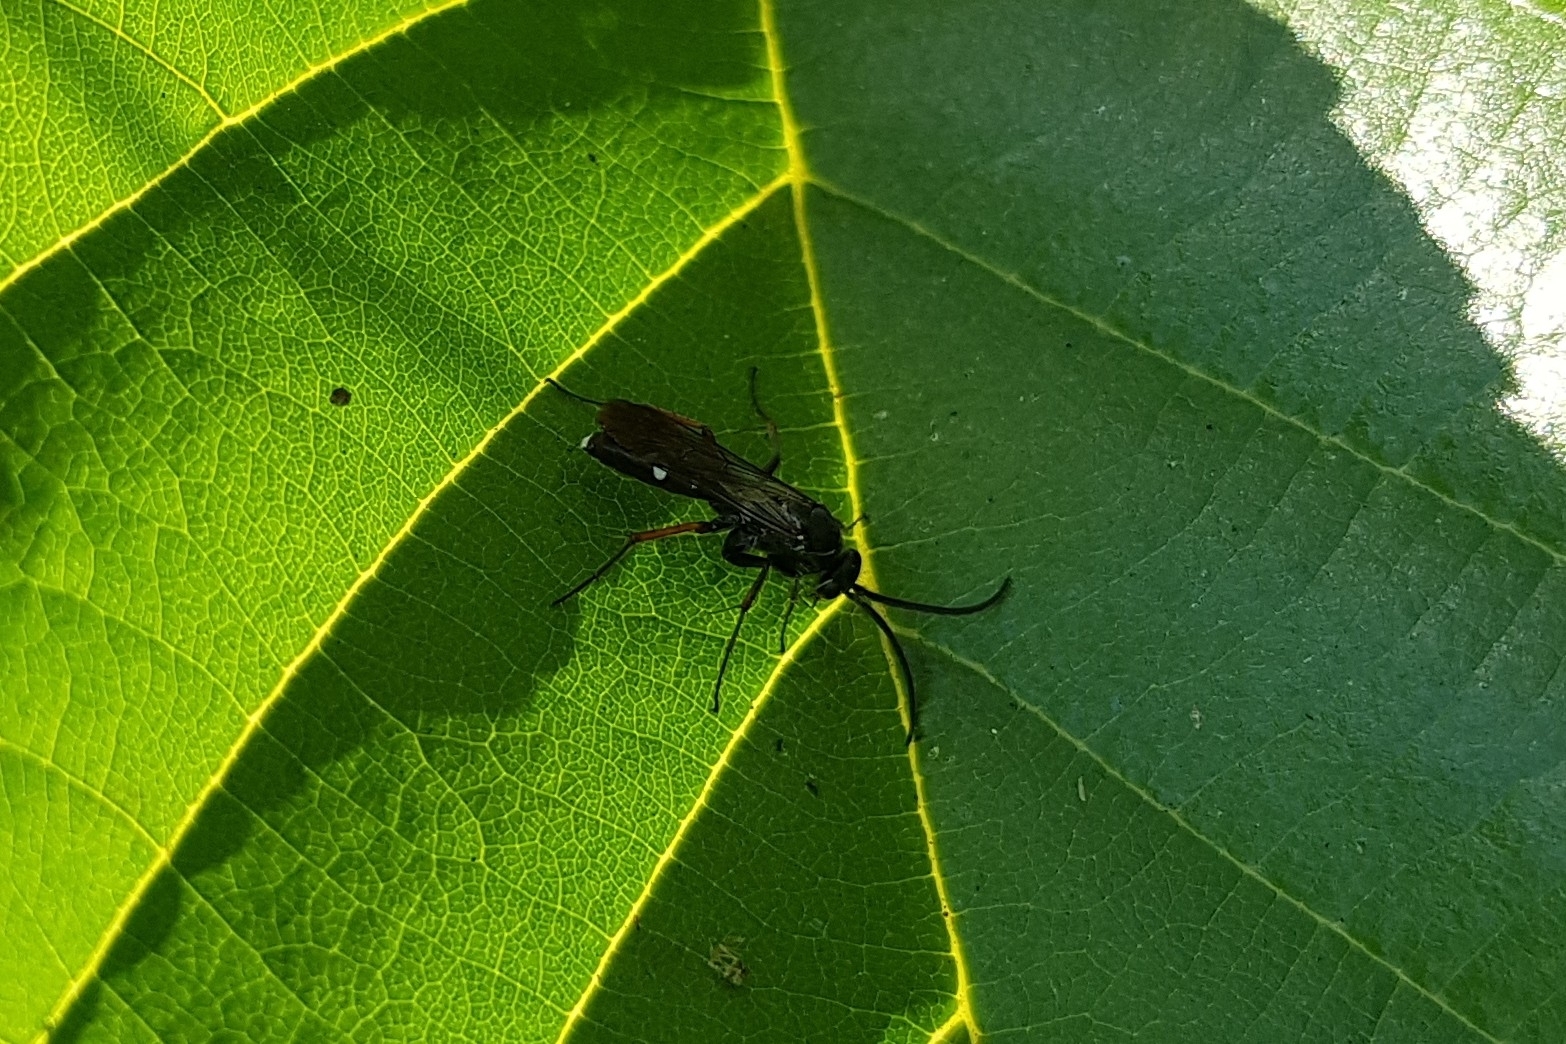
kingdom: Animalia
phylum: Arthropoda
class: Insecta
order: Hymenoptera
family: Pompilidae
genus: Episyron
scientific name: Episyron rufipes
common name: Red legged spider wasp
